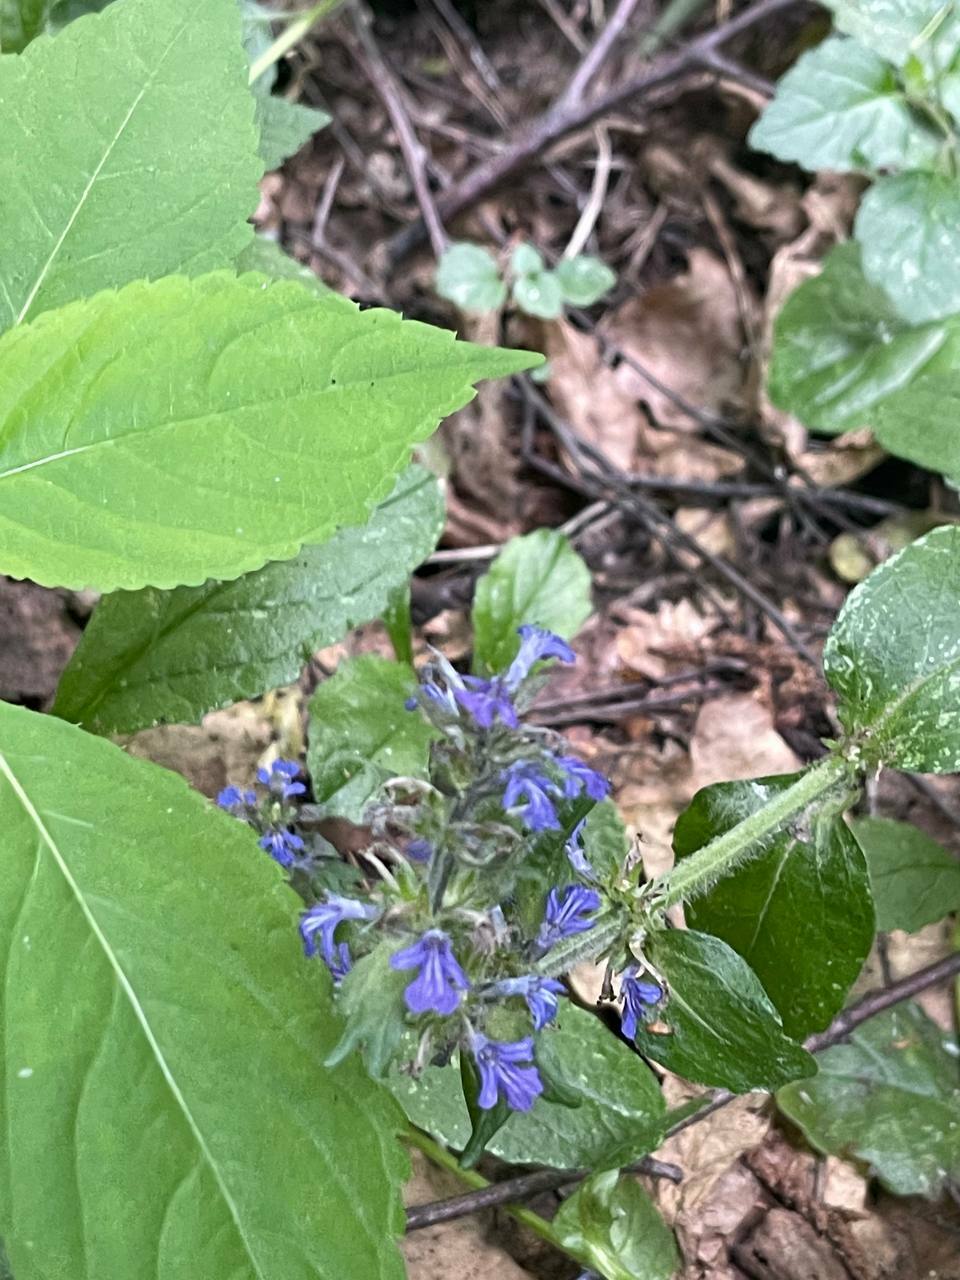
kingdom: Plantae
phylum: Tracheophyta
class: Magnoliopsida
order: Lamiales
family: Lamiaceae
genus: Ajuga
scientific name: Ajuga reptans
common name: Bugle
